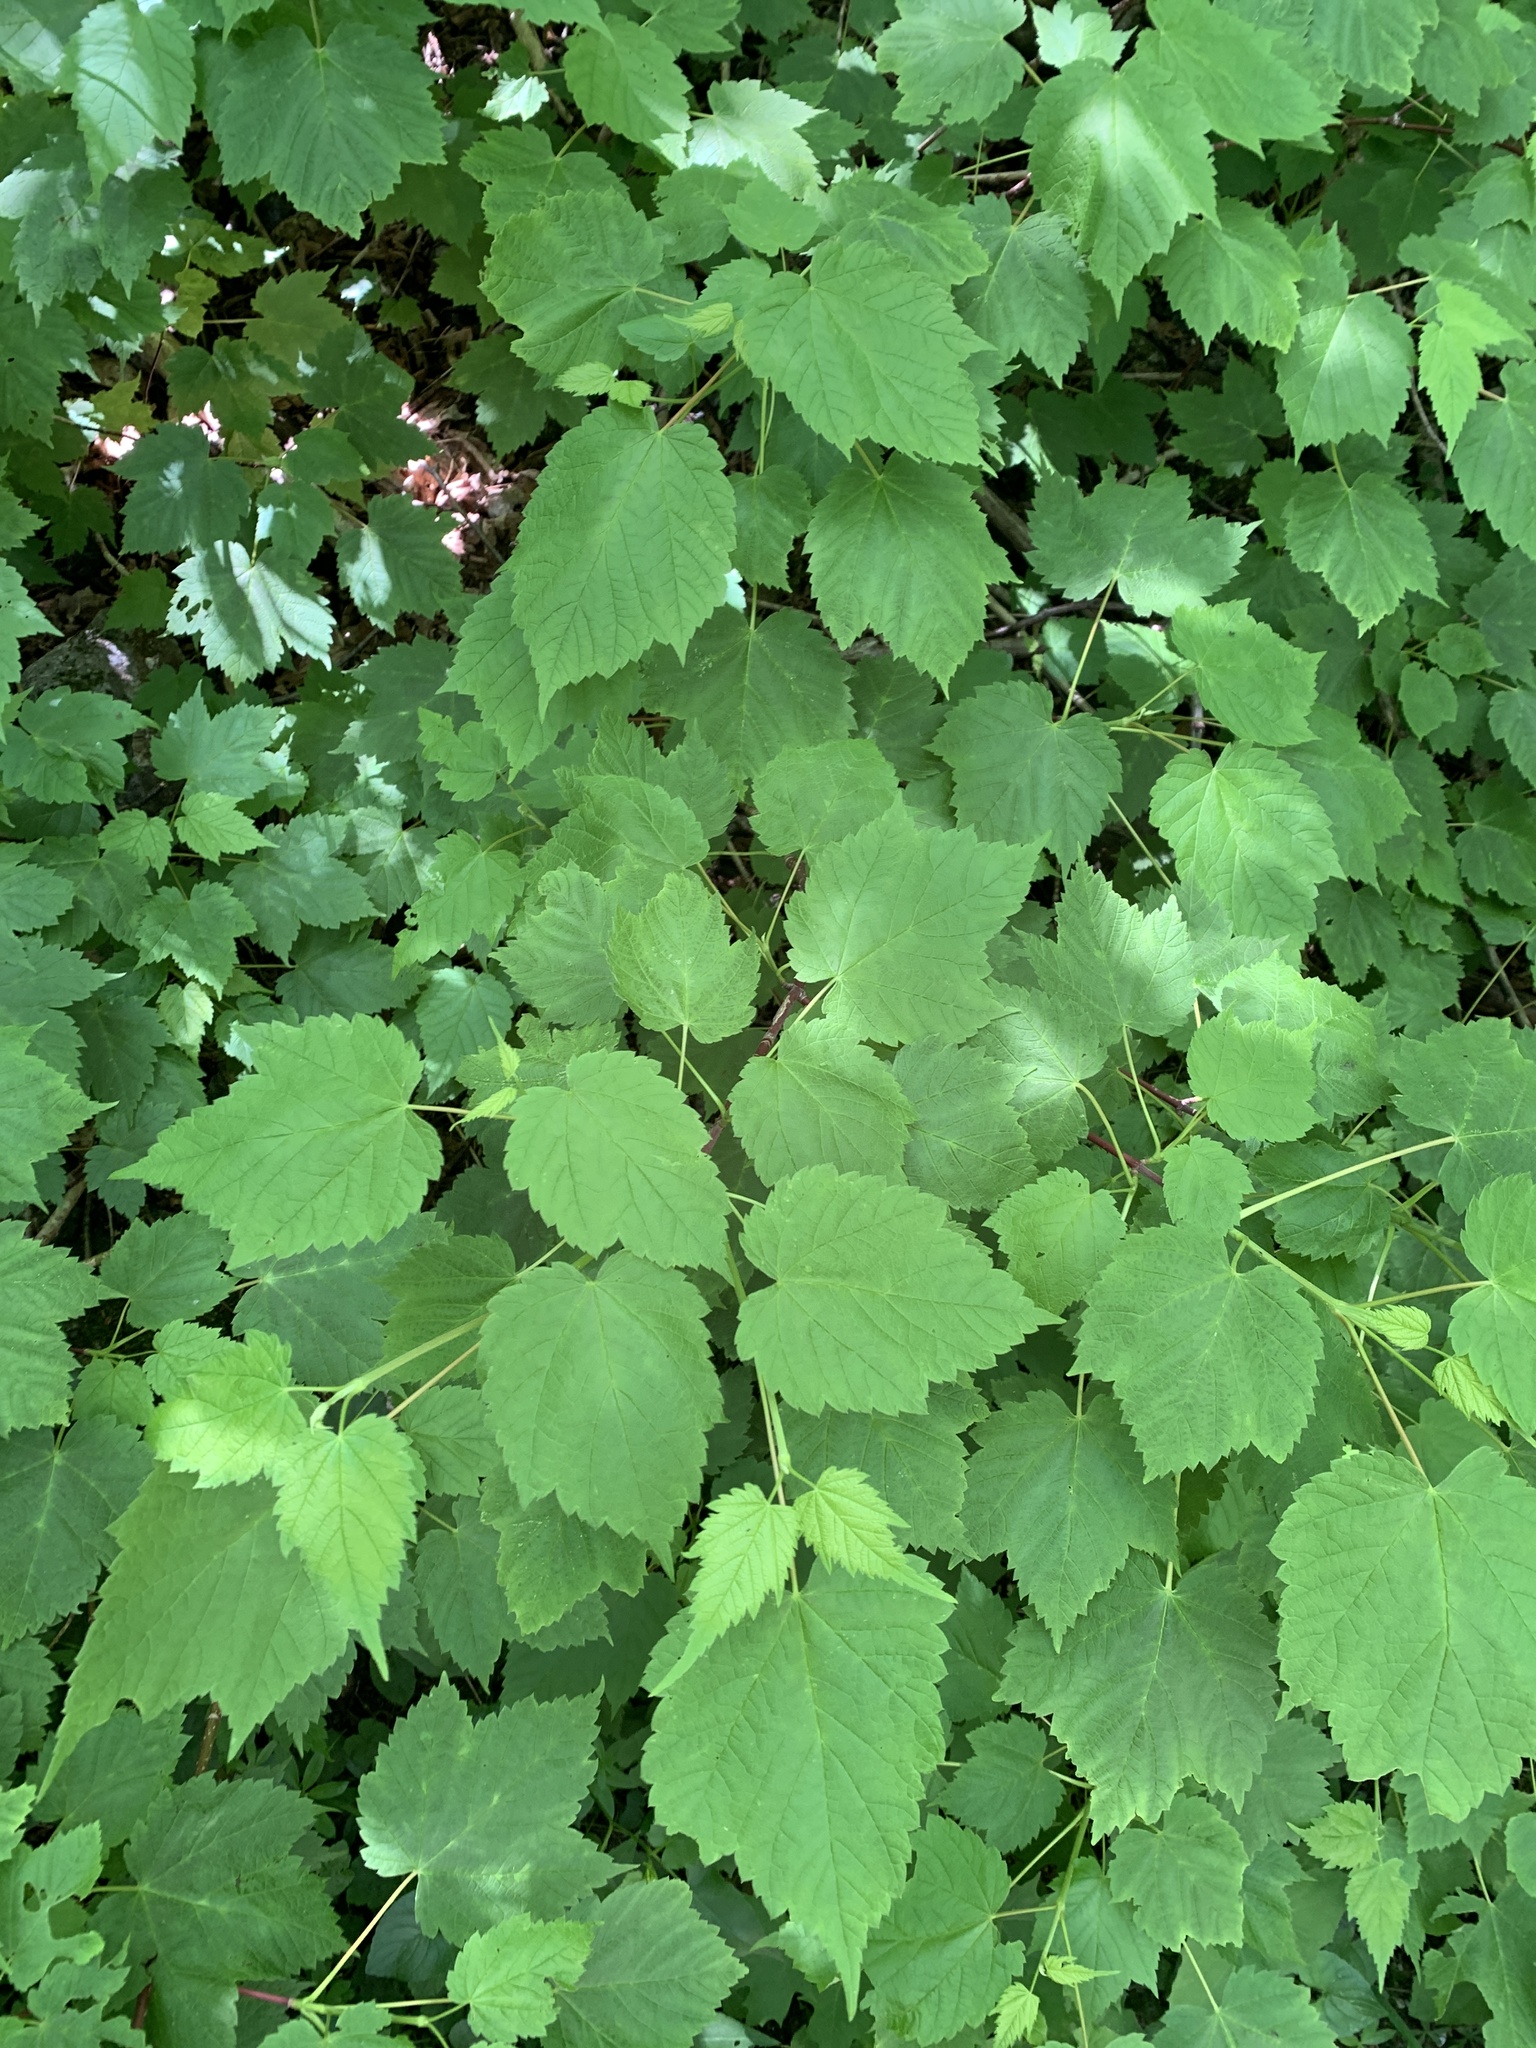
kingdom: Plantae
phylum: Tracheophyta
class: Magnoliopsida
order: Sapindales
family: Sapindaceae
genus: Acer
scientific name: Acer spicatum
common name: Mountain maple
